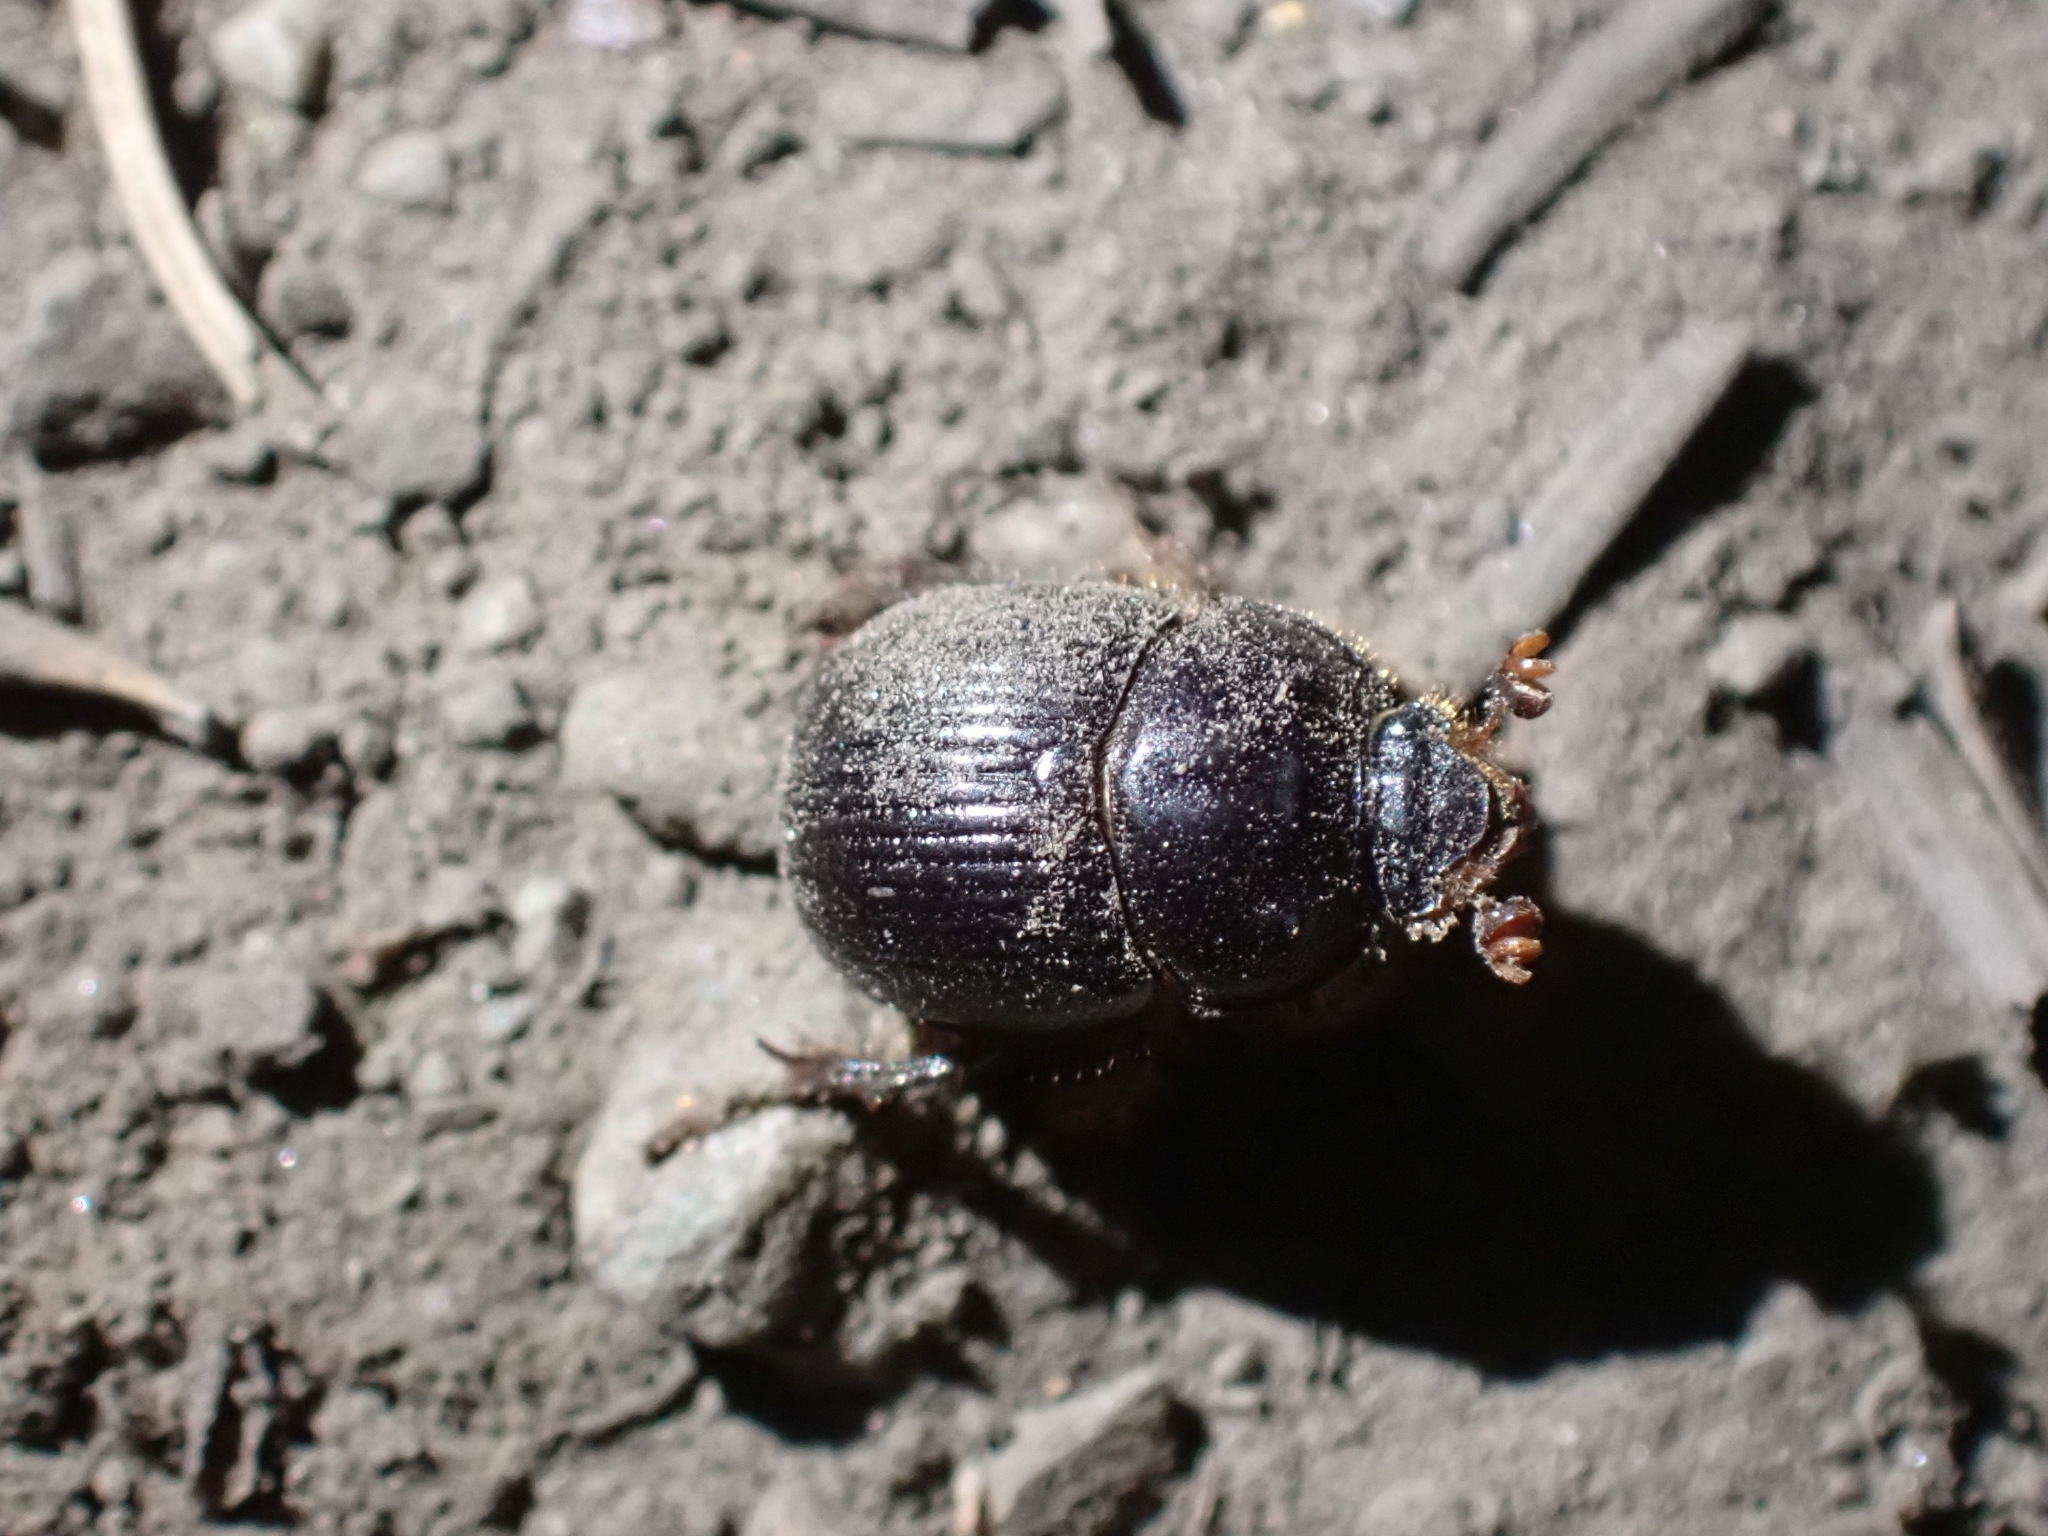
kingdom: Animalia
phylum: Arthropoda
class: Insecta
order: Coleoptera
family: Geotrupidae
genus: Odonteus
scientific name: Odonteus obesus
